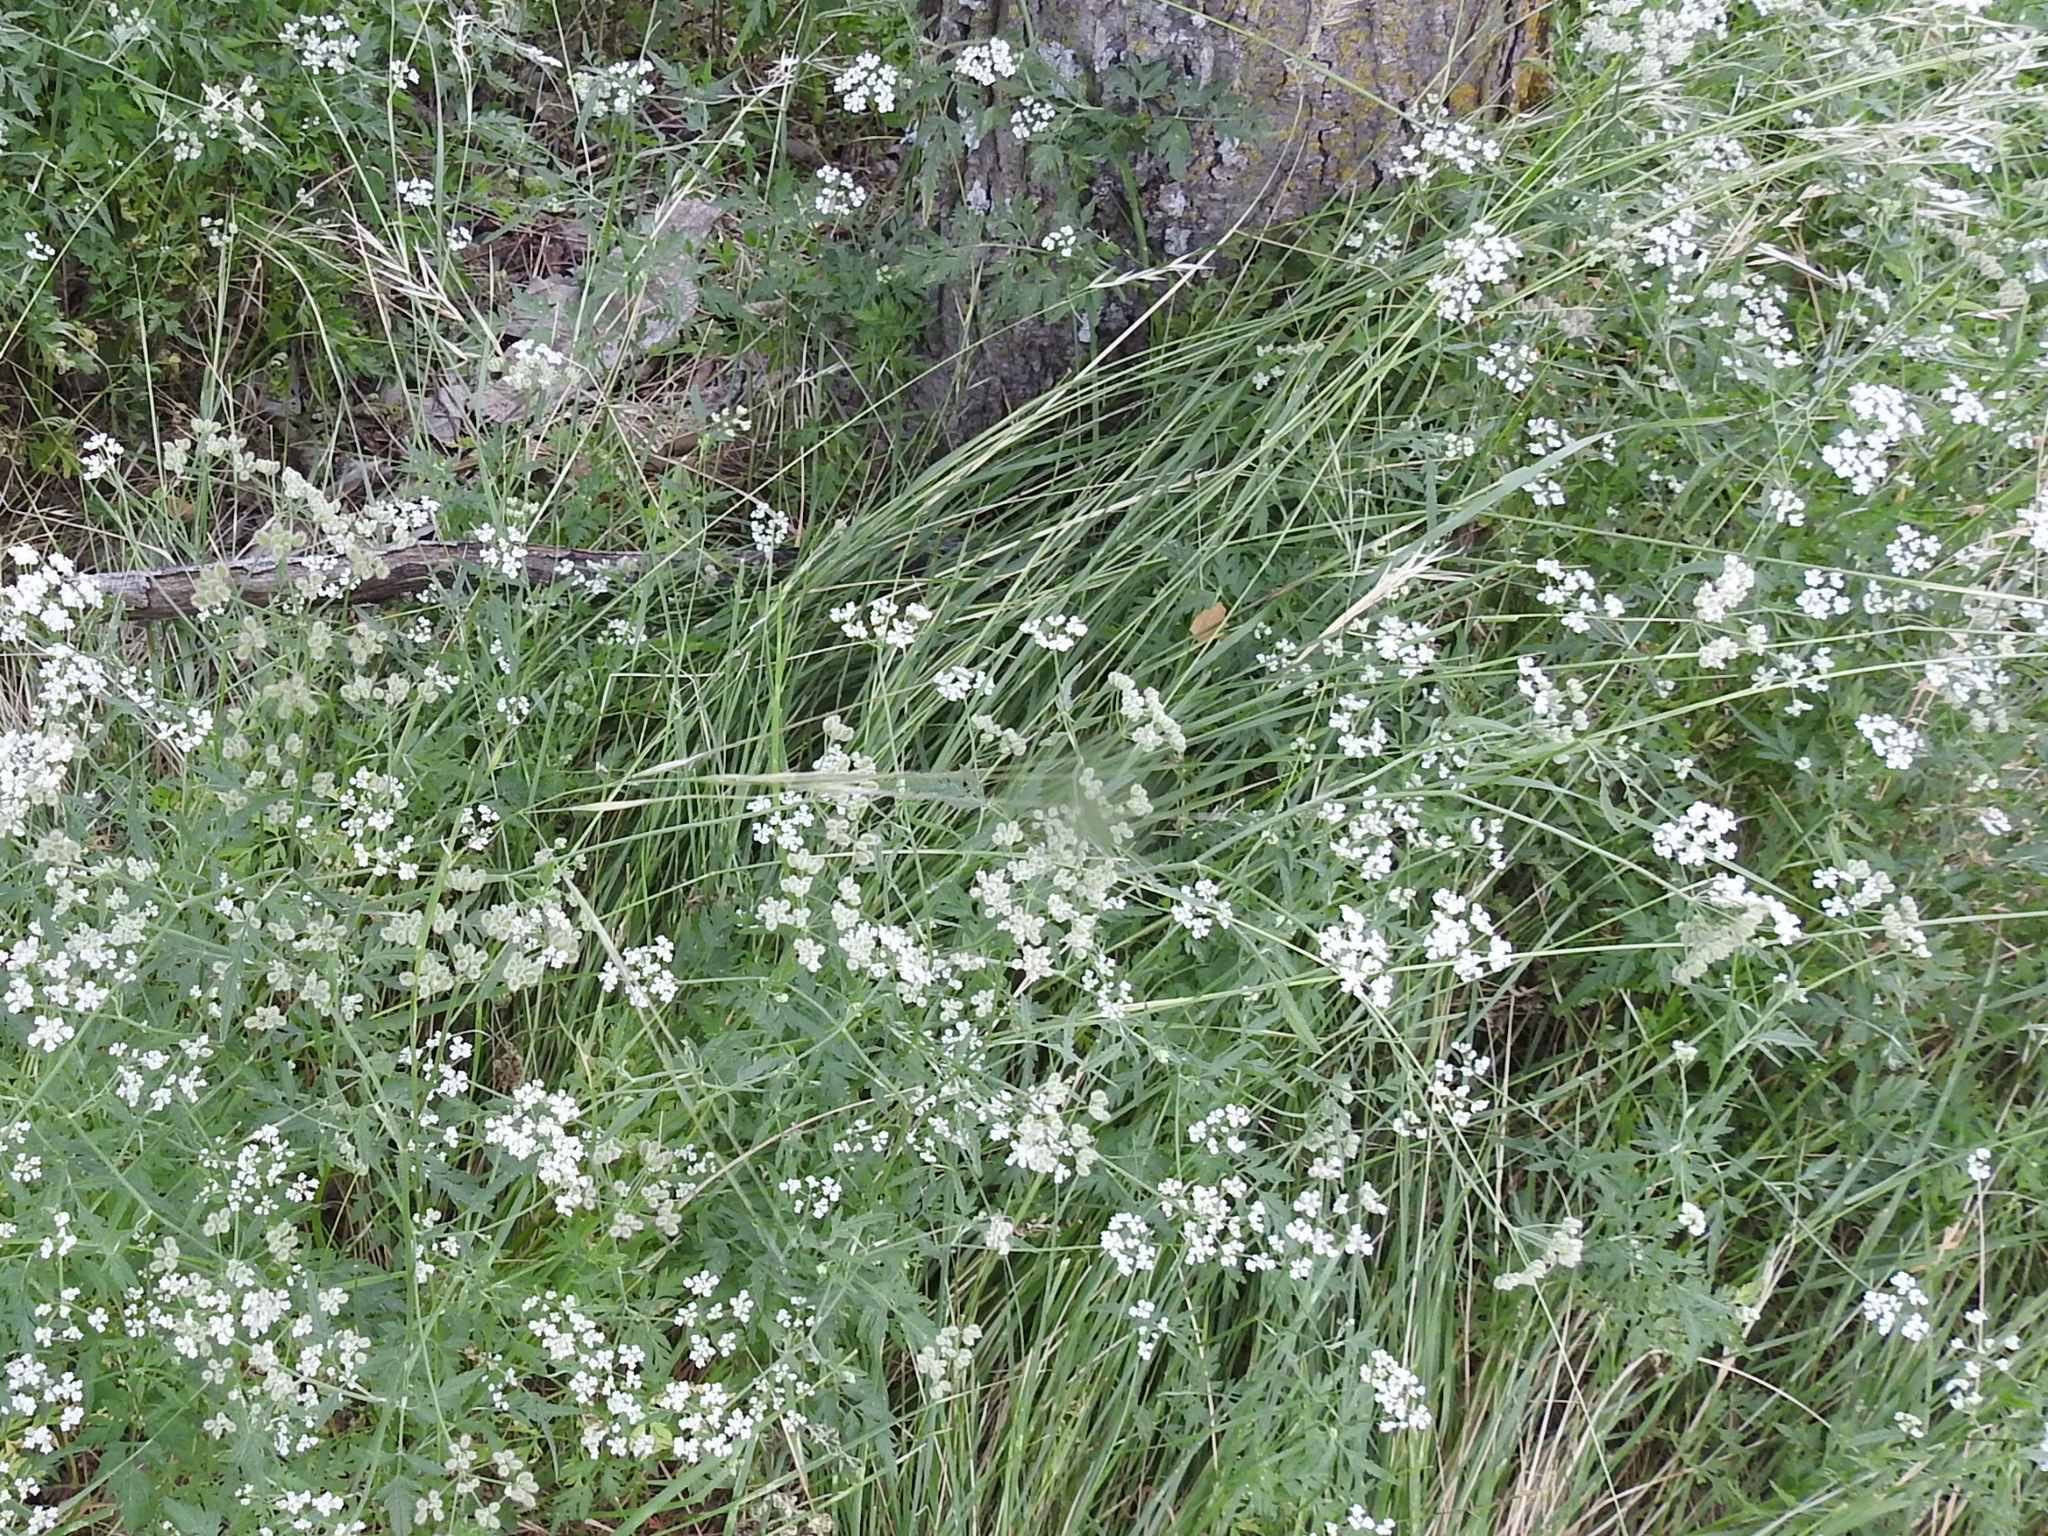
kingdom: Plantae
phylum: Tracheophyta
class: Liliopsida
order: Poales
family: Poaceae
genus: Nassella
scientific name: Nassella leucotricha
